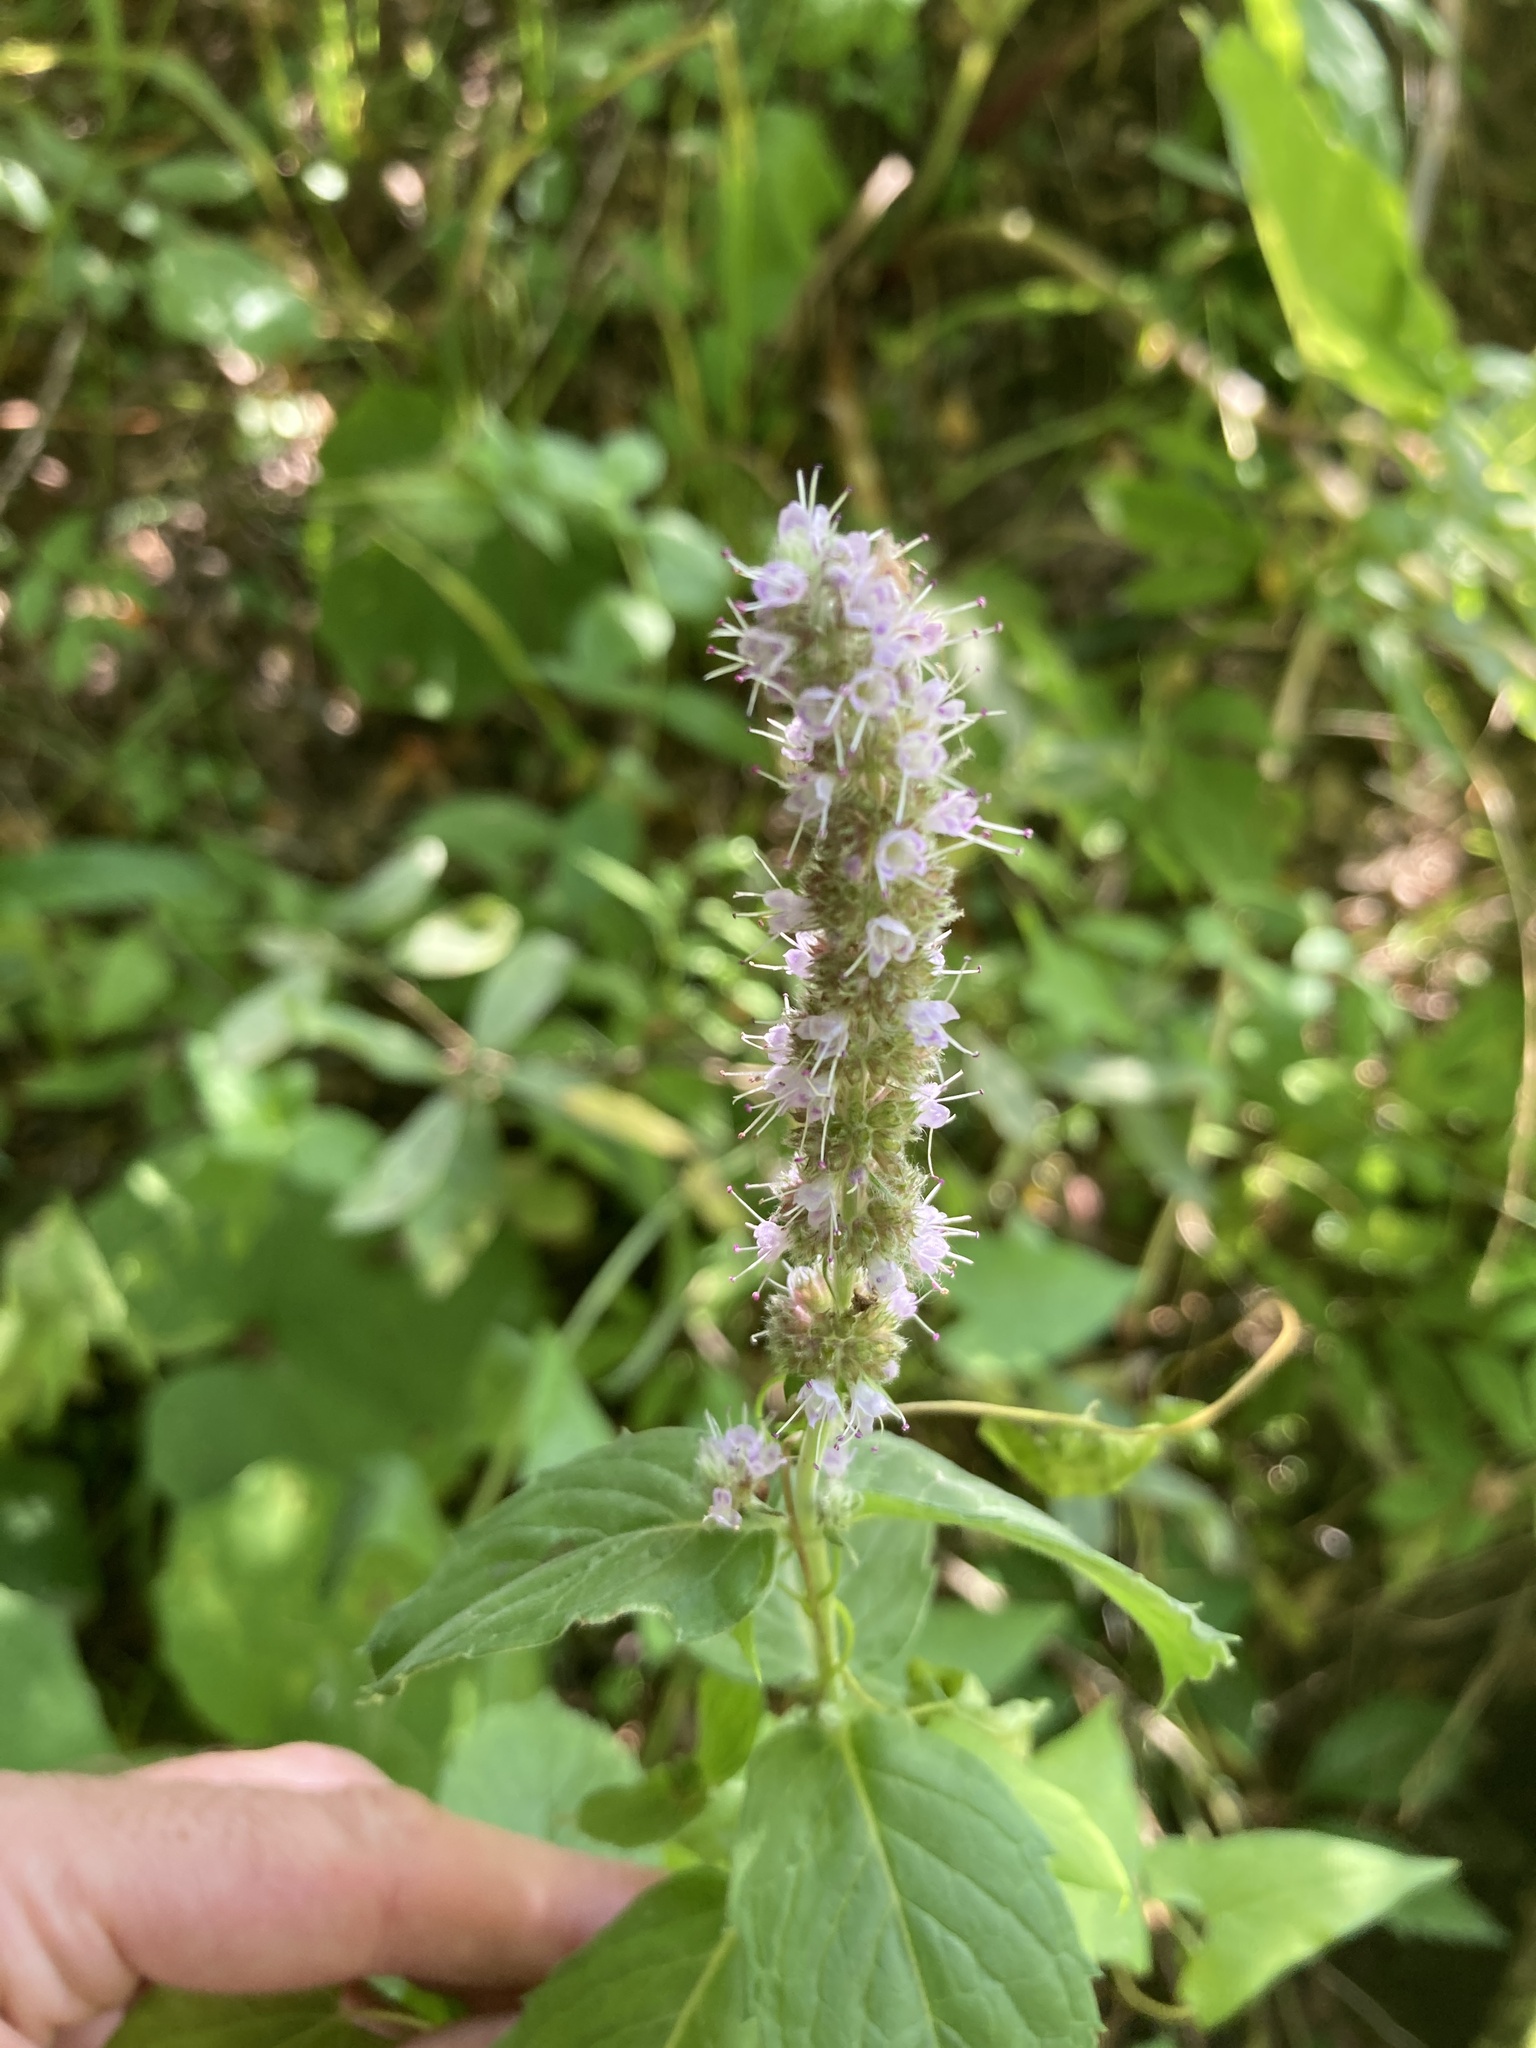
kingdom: Plantae
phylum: Tracheophyta
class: Magnoliopsida
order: Lamiales
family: Lamiaceae
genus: Ajuga
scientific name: Ajuga reptans
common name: Bugle
